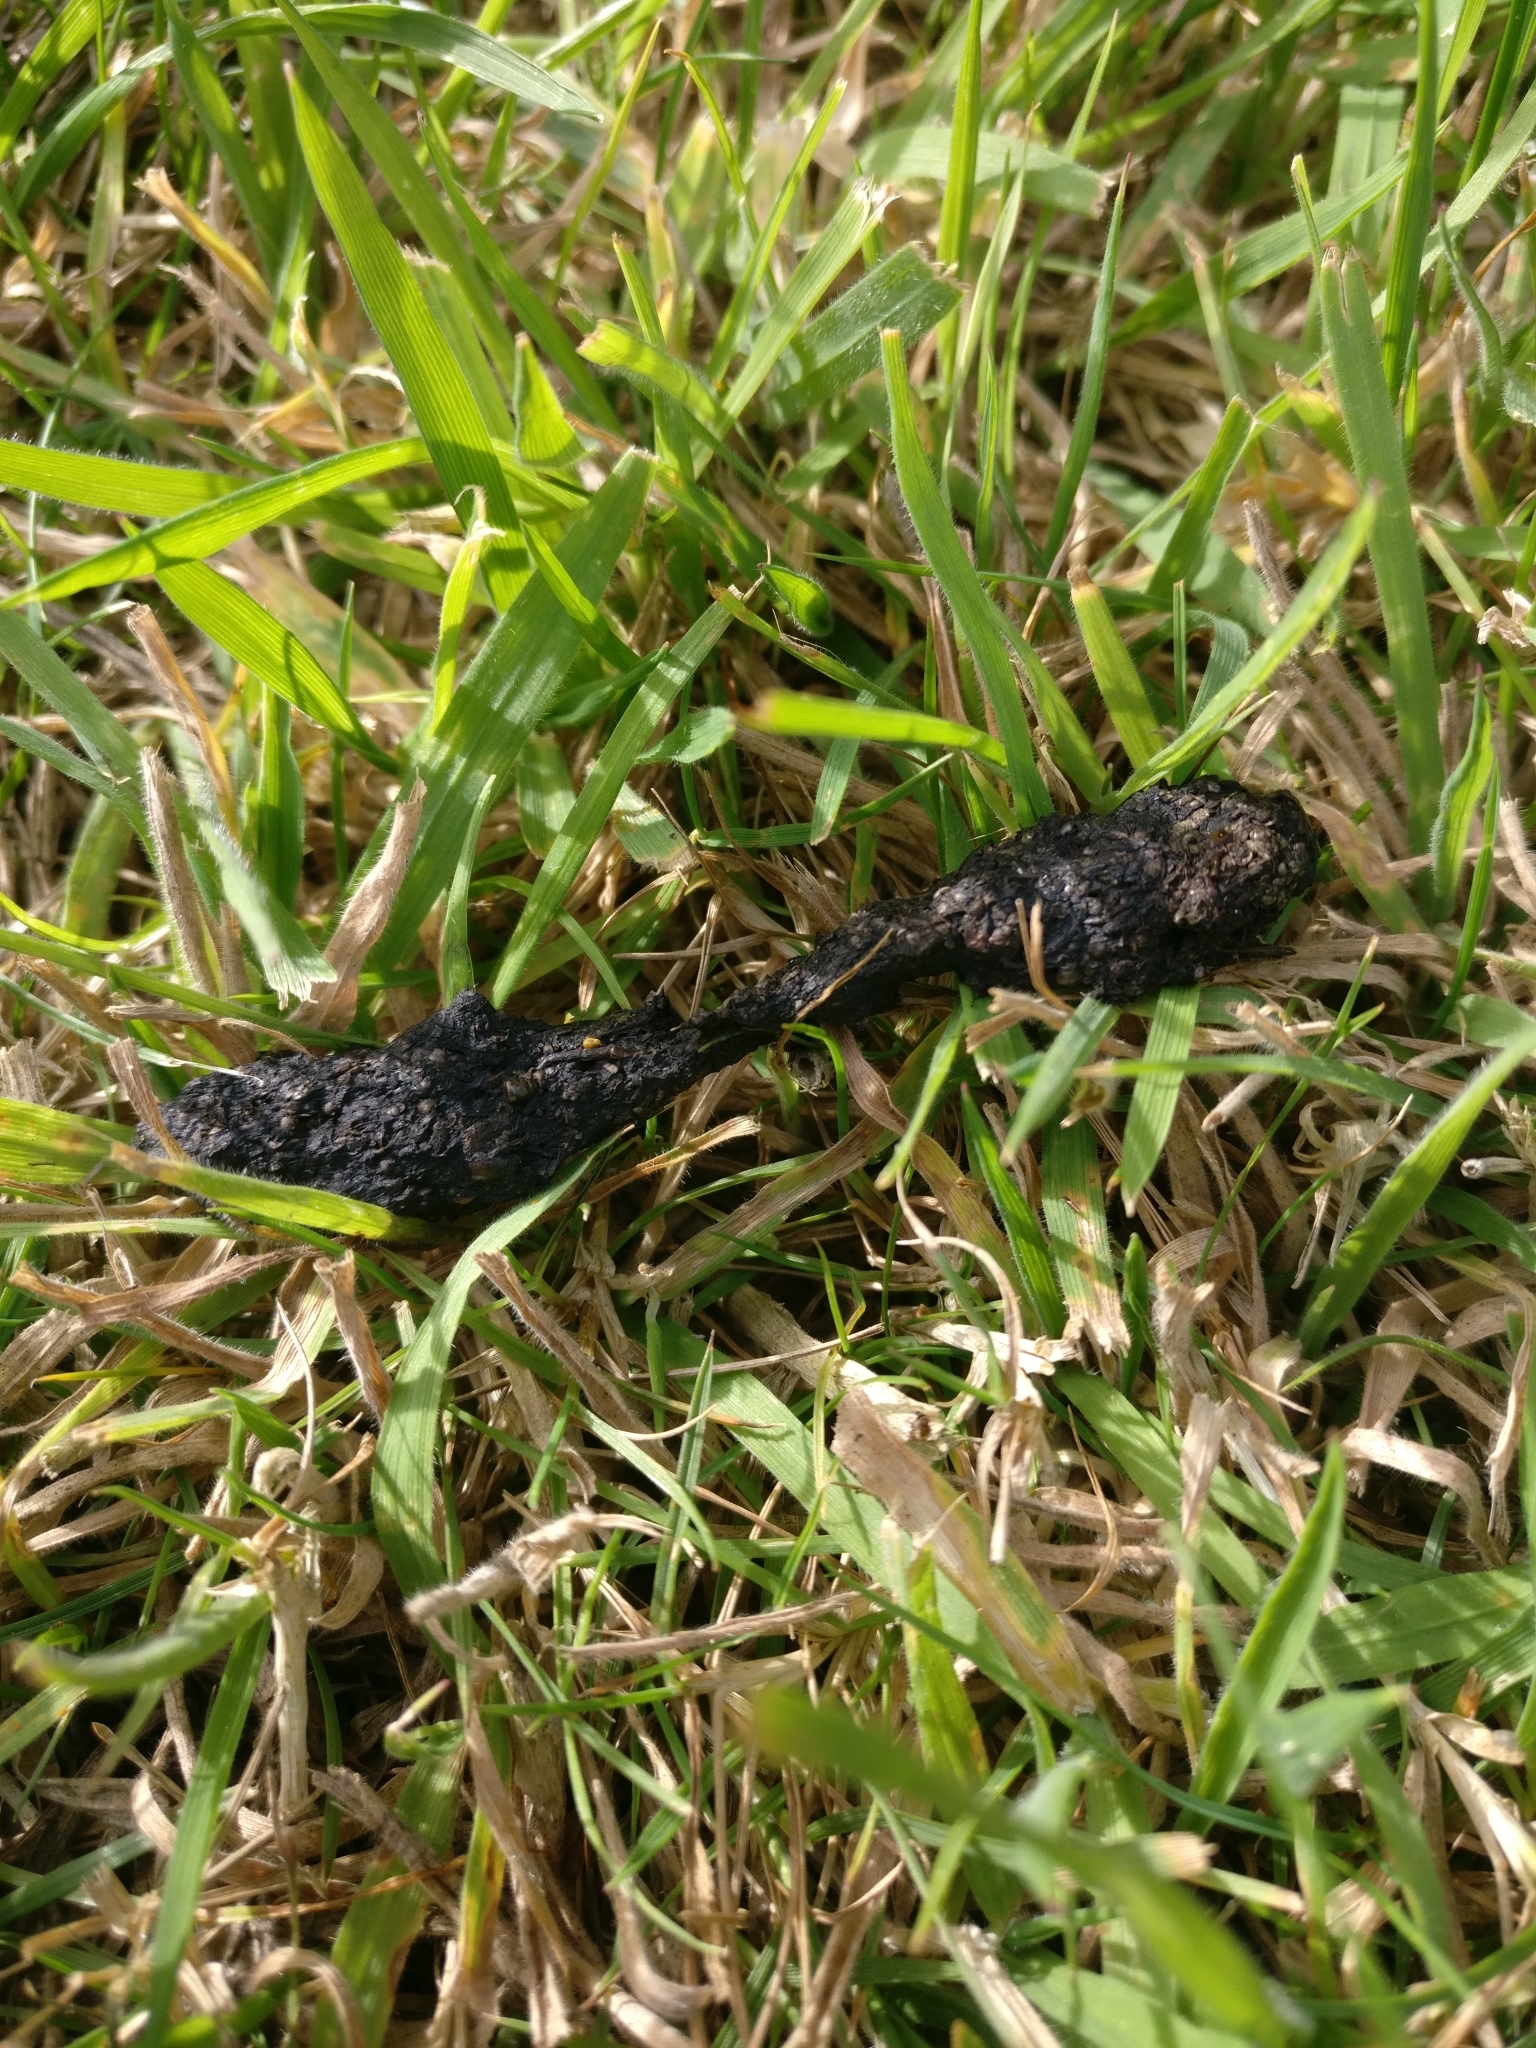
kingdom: Animalia
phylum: Chordata
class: Mammalia
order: Erinaceomorpha
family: Erinaceidae
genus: Erinaceus
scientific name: Erinaceus europaeus
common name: West european hedgehog
